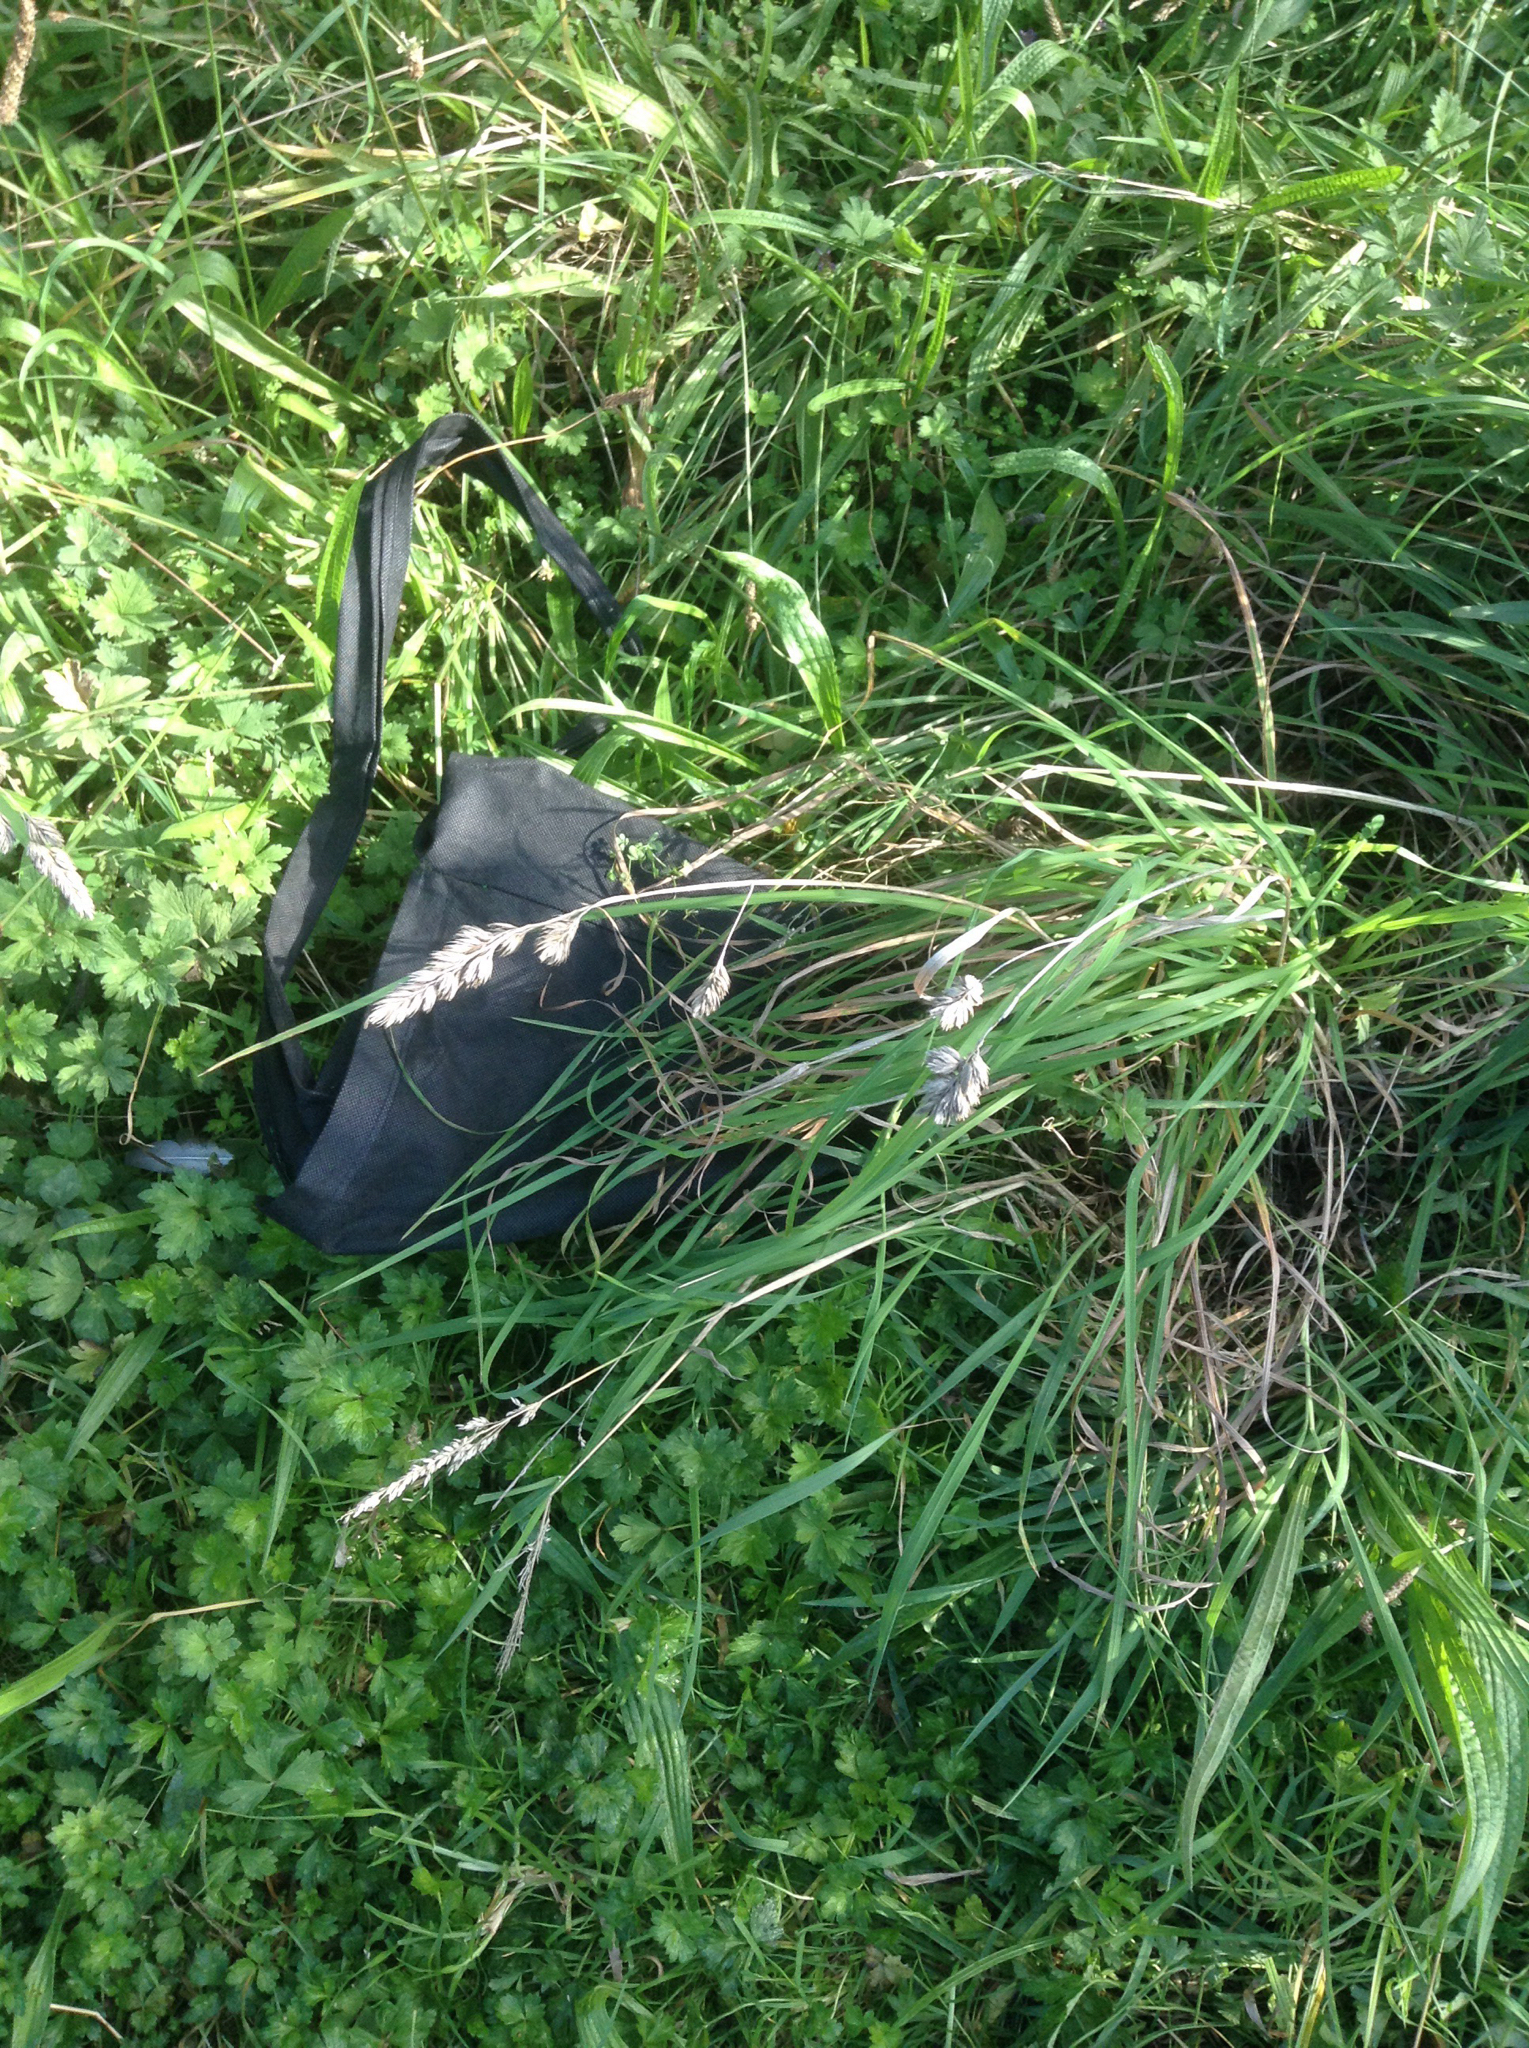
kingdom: Plantae
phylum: Tracheophyta
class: Liliopsida
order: Poales
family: Poaceae
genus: Dactylis
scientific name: Dactylis glomerata
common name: Orchardgrass
